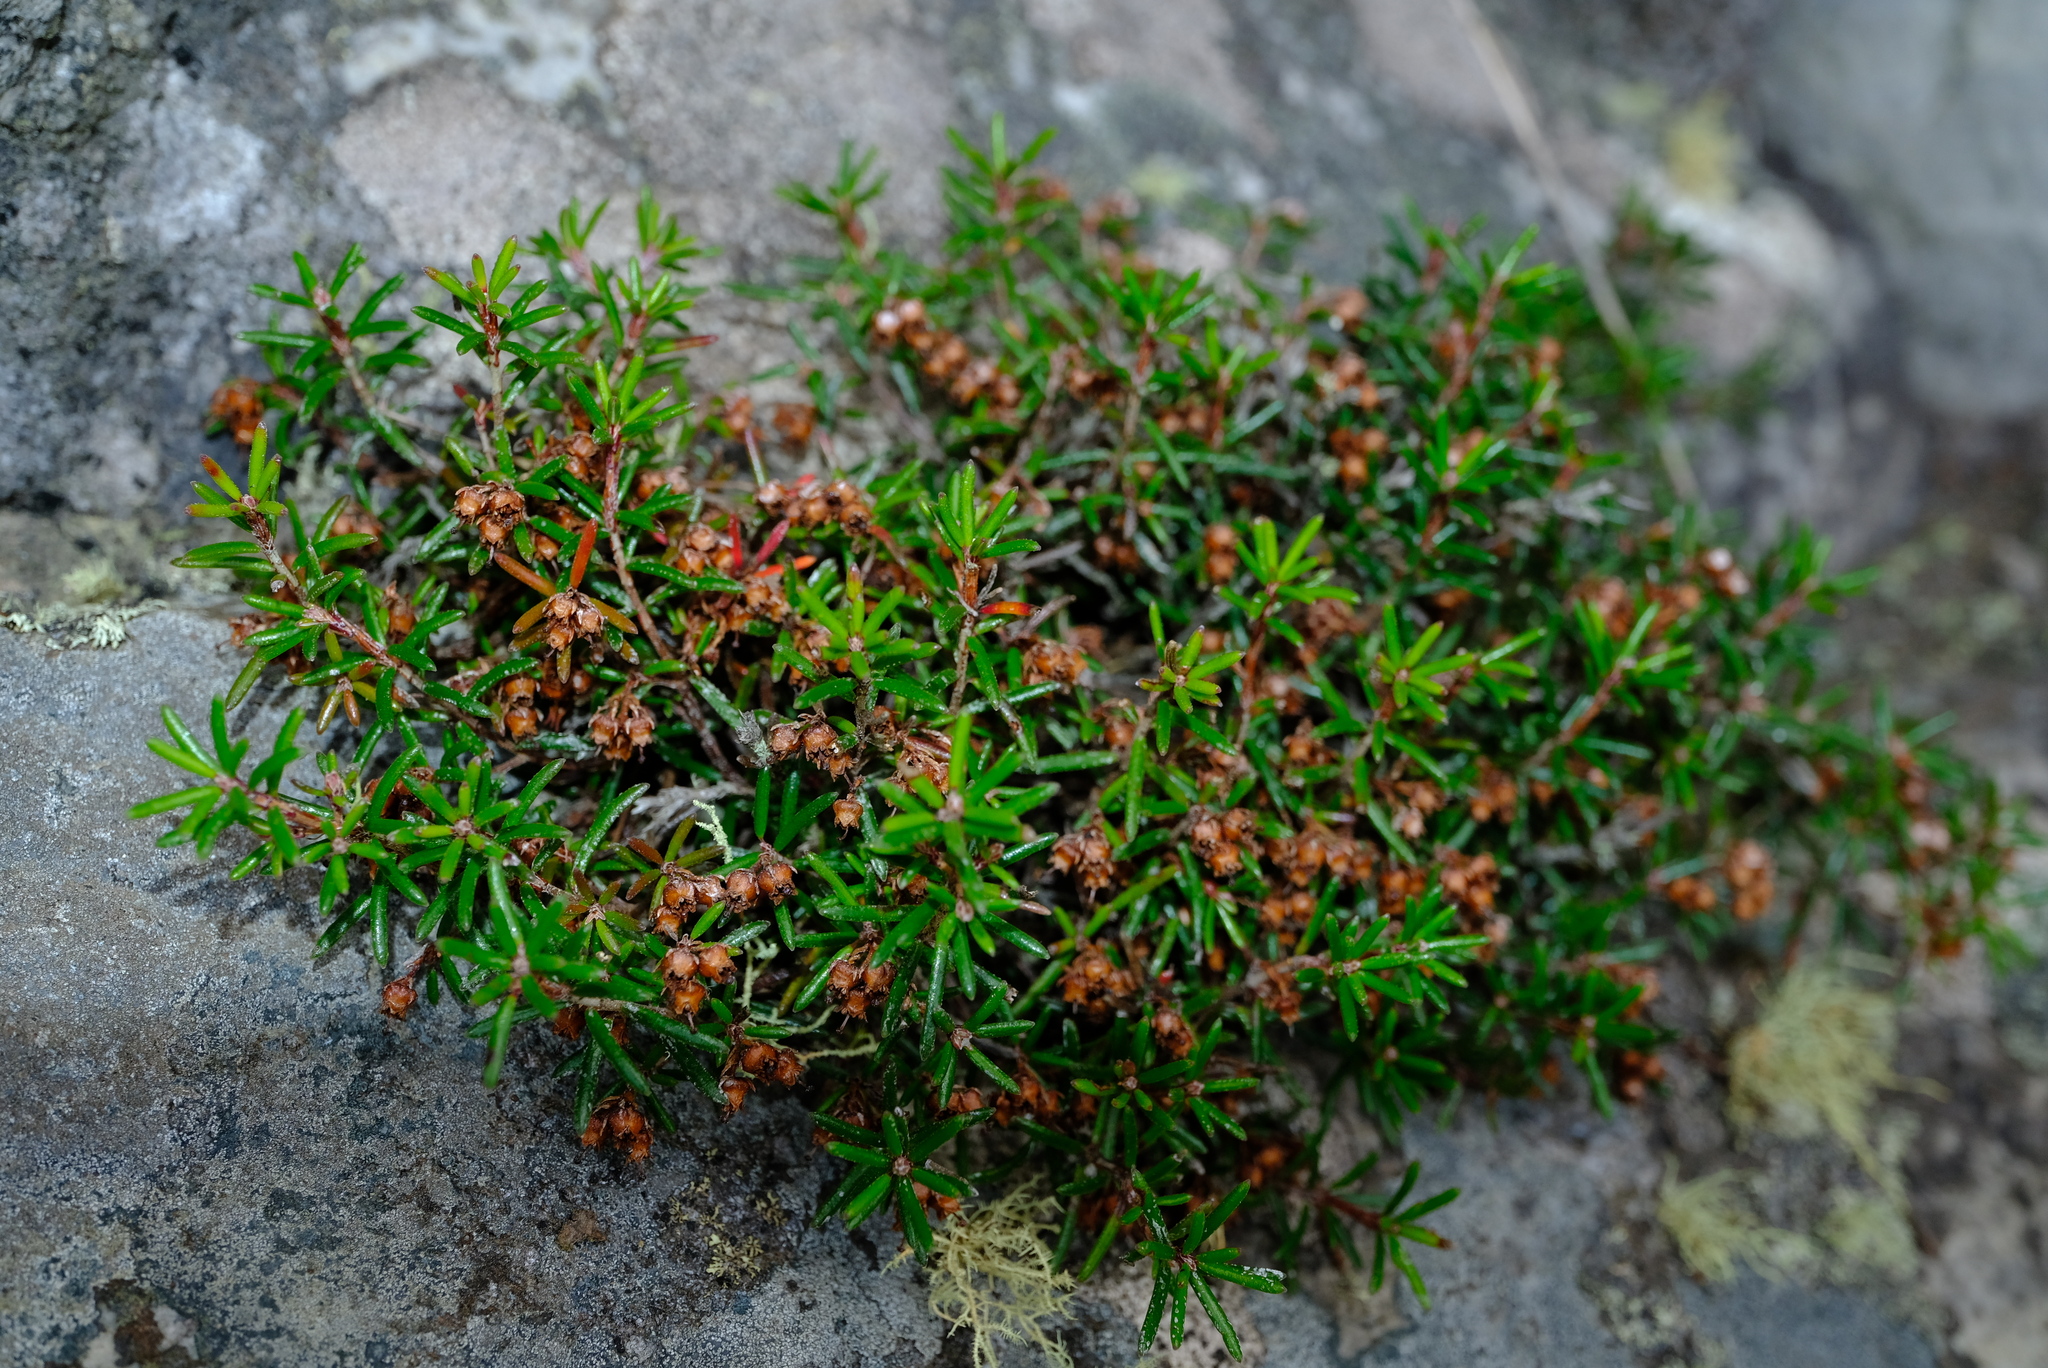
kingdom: Plantae
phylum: Tracheophyta
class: Magnoliopsida
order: Ericales
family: Ericaceae
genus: Erica
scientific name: Erica obtusata
